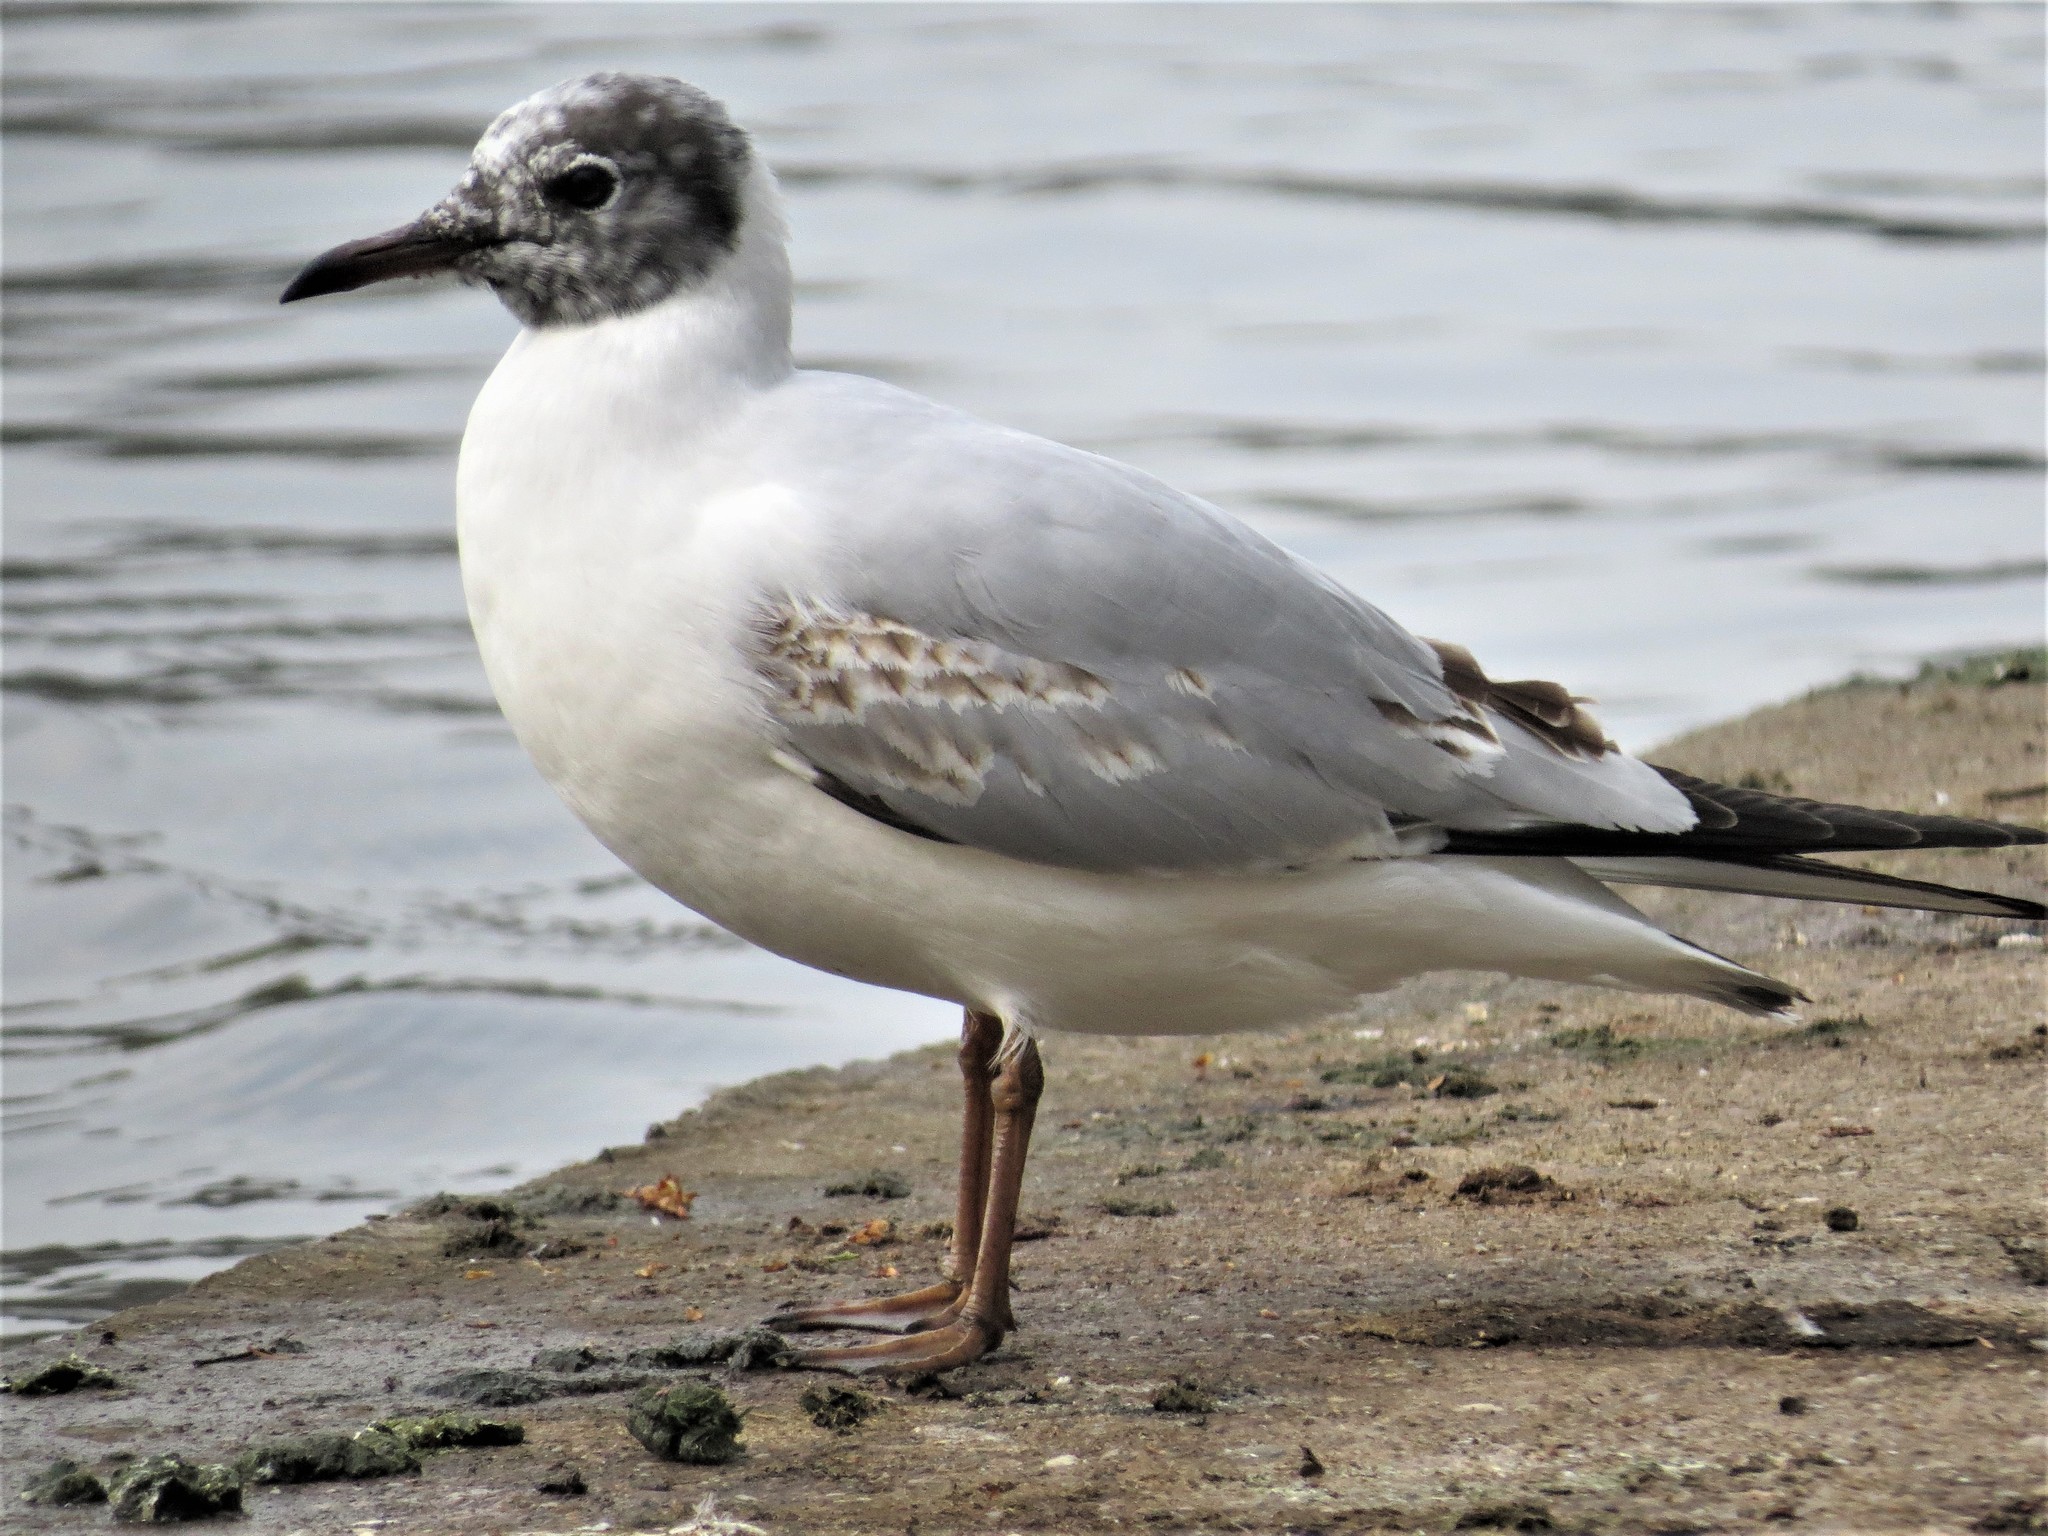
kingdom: Animalia
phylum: Chordata
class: Aves
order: Charadriiformes
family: Laridae
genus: Chroicocephalus
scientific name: Chroicocephalus ridibundus
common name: Black-headed gull
